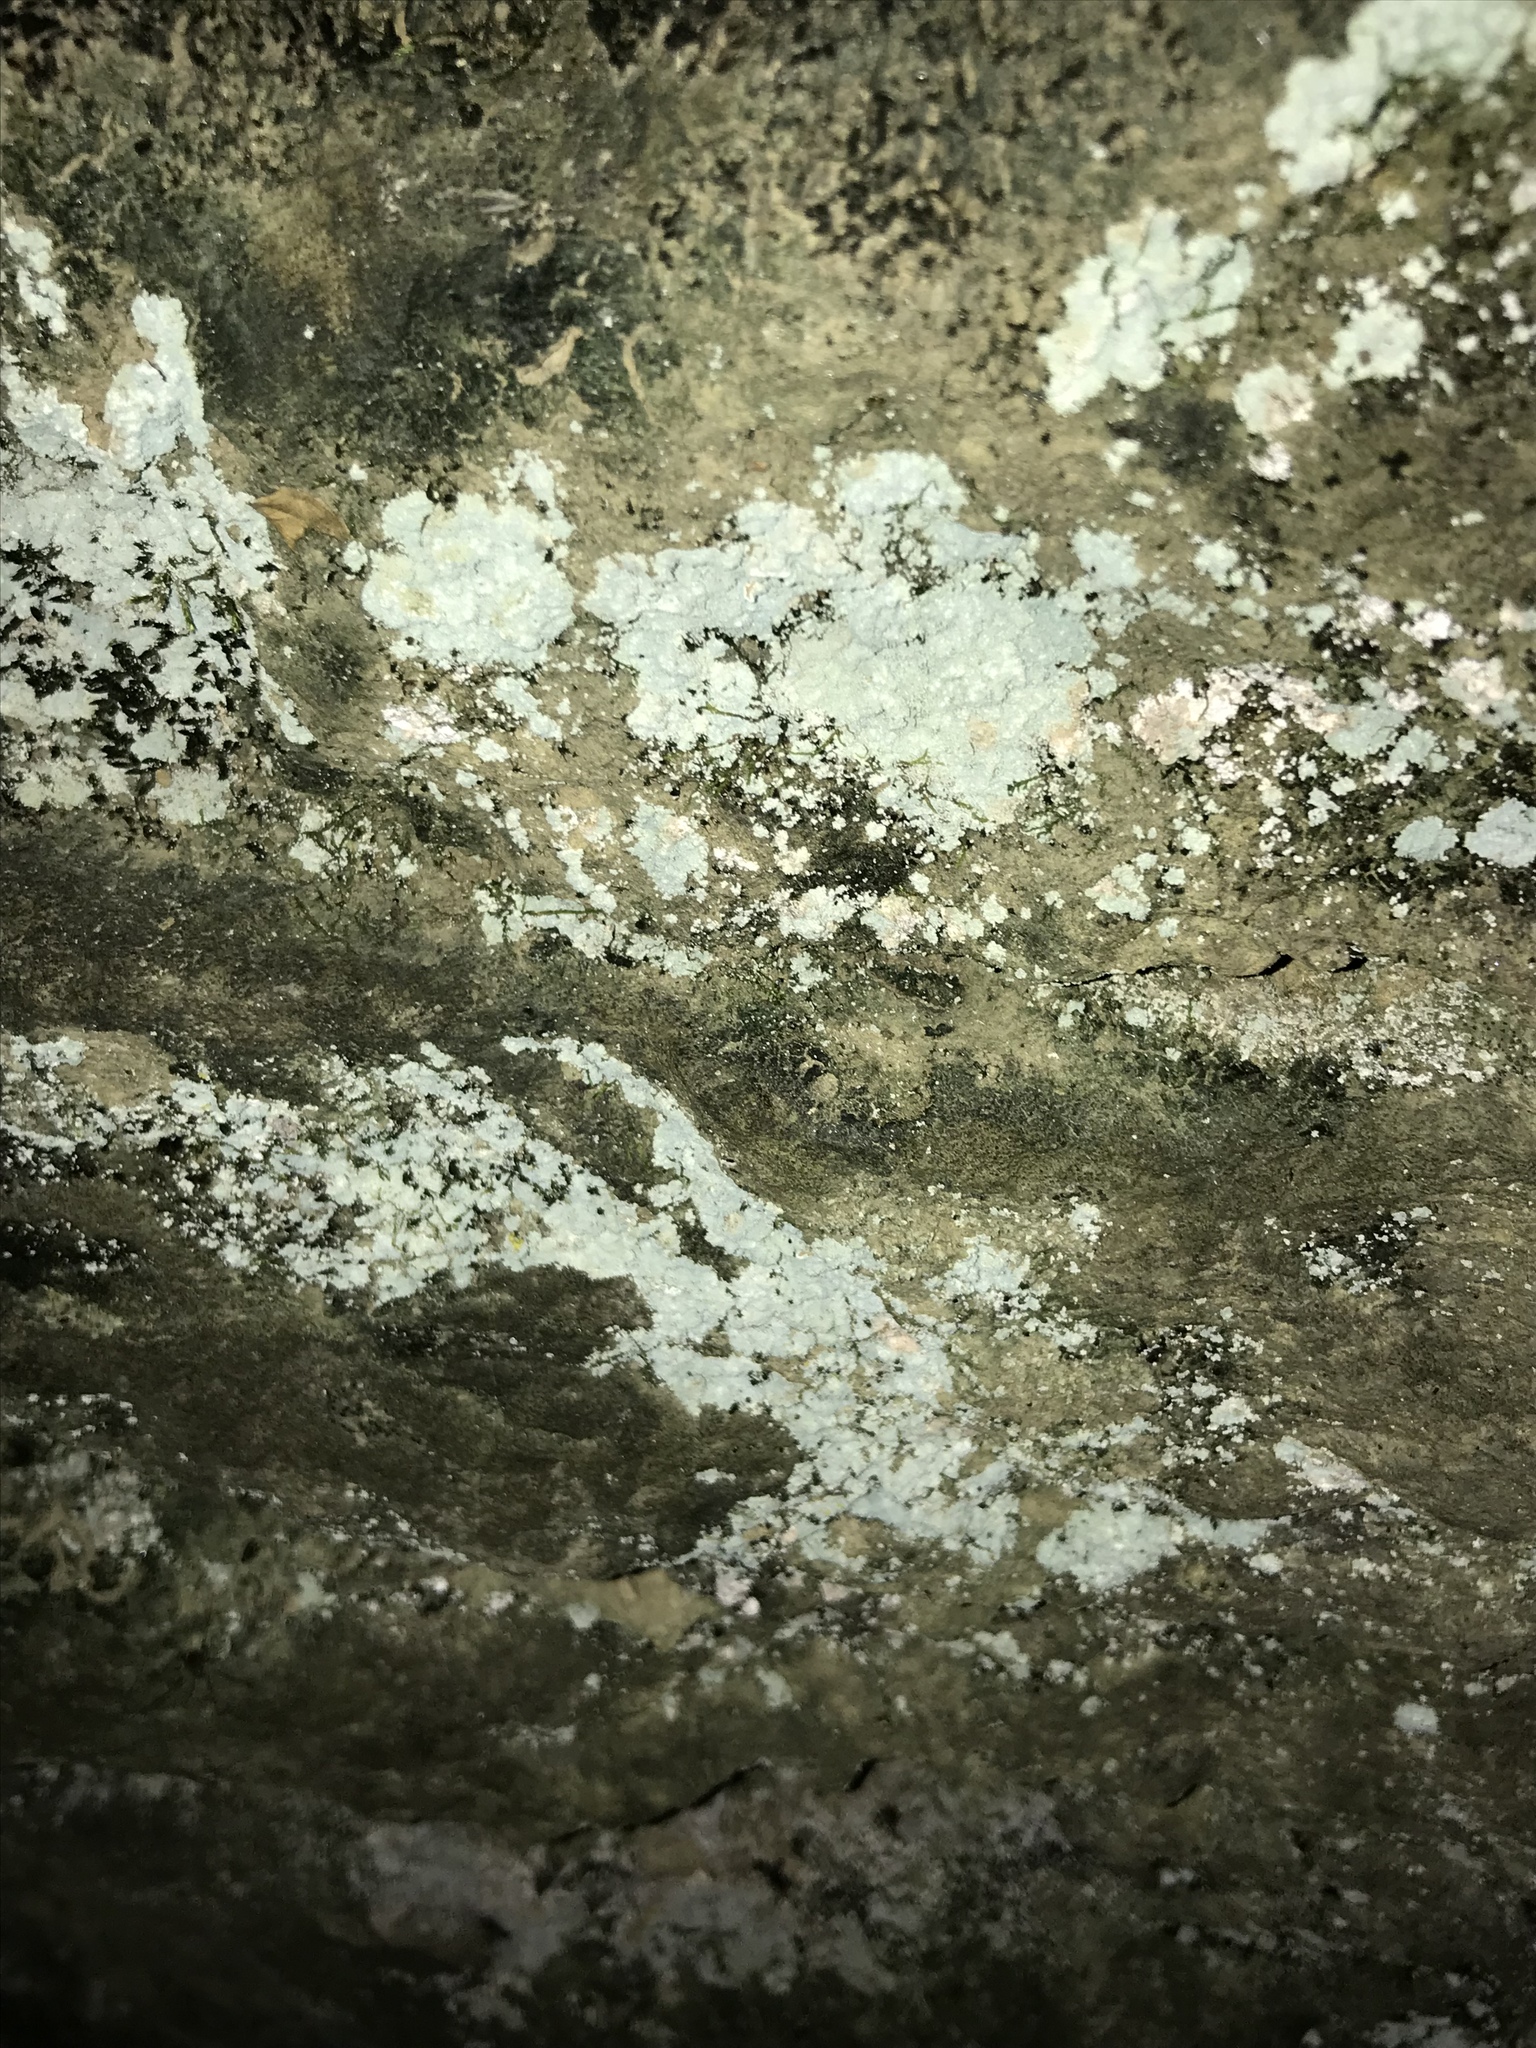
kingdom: Fungi
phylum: Ascomycota
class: Lecanoromycetes
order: Lecanorales
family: Stereocaulaceae
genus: Lepraria
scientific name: Lepraria lobificans
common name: Fluffy dust lichen
